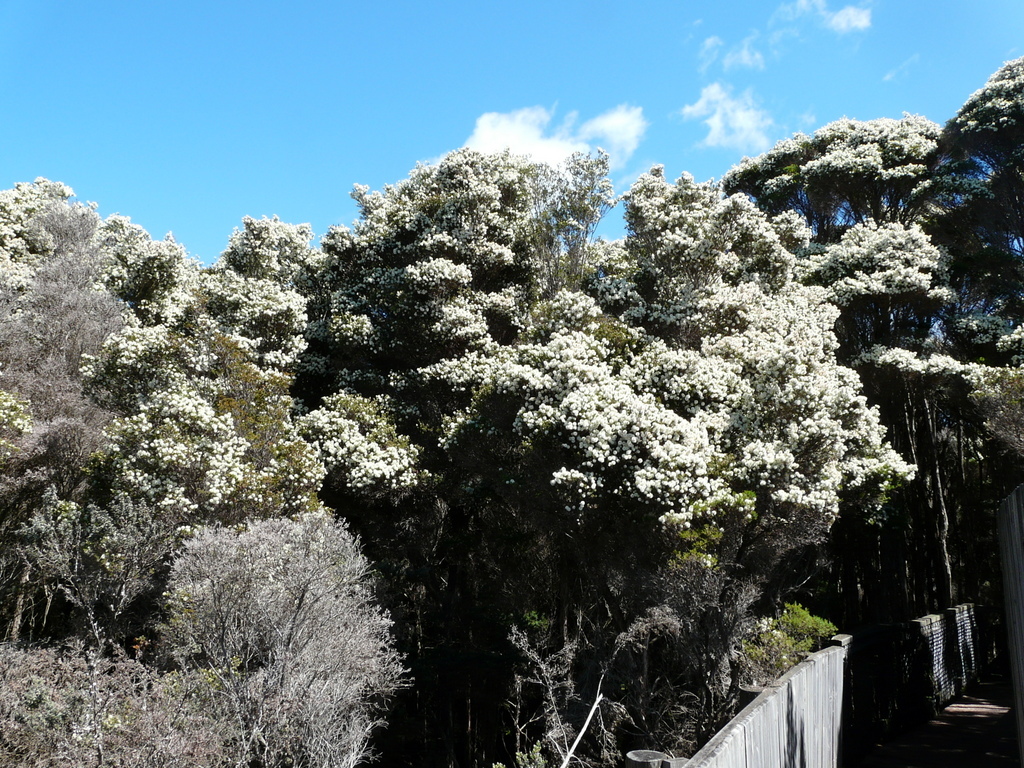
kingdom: Plantae
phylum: Tracheophyta
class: Magnoliopsida
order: Myrtales
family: Myrtaceae
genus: Melaleuca
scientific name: Melaleuca ericifolia
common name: Paperbark teatree
